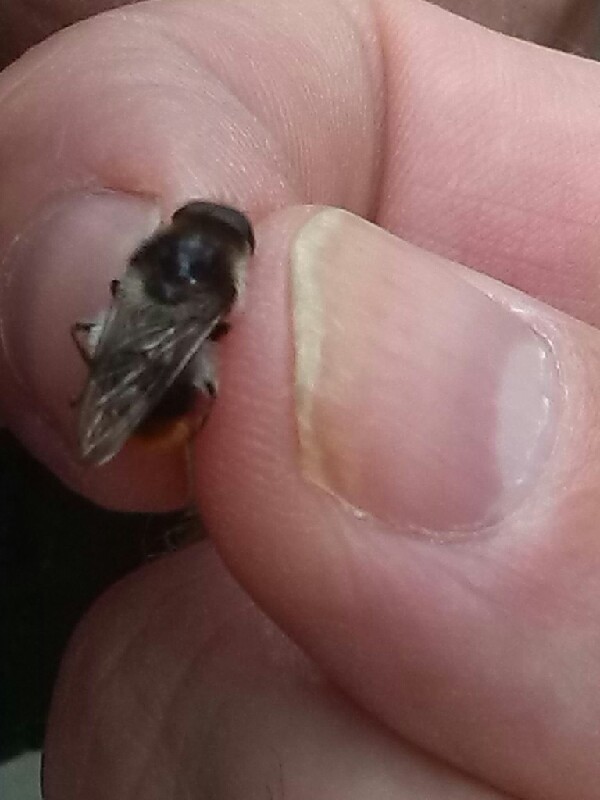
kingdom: Animalia
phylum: Arthropoda
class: Insecta
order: Diptera
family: Syrphidae
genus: Cheilosia
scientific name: Cheilosia illustrata
